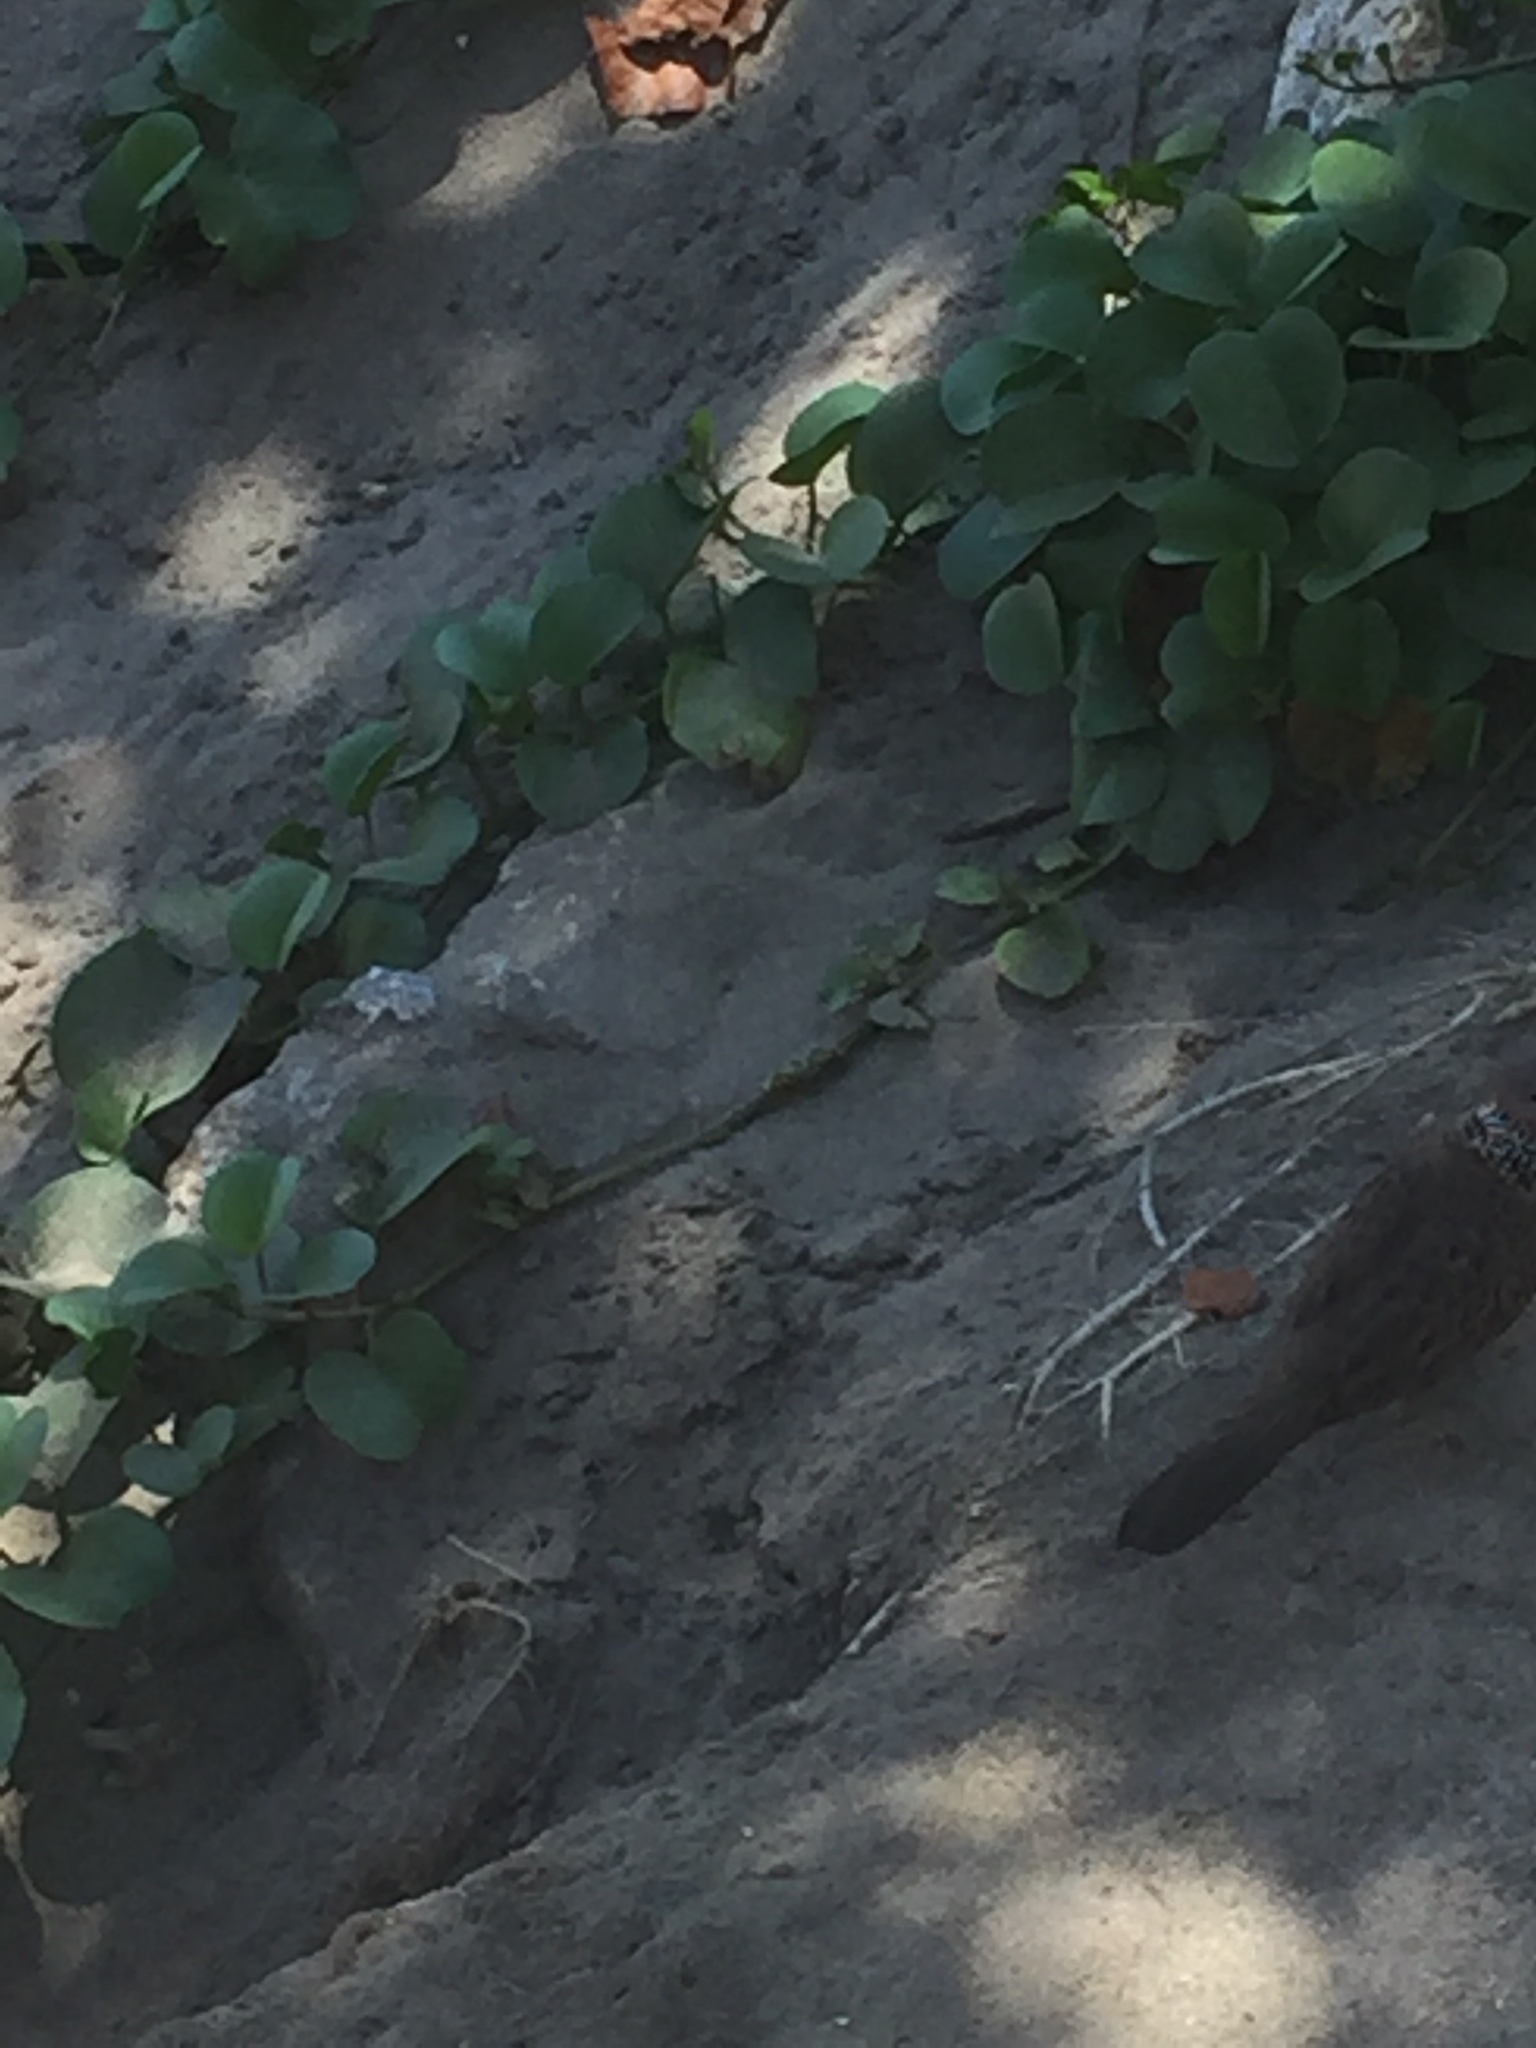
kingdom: Plantae
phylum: Tracheophyta
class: Magnoliopsida
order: Solanales
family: Convolvulaceae
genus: Ipomoea
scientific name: Ipomoea pes-caprae
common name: Beach morning glory
